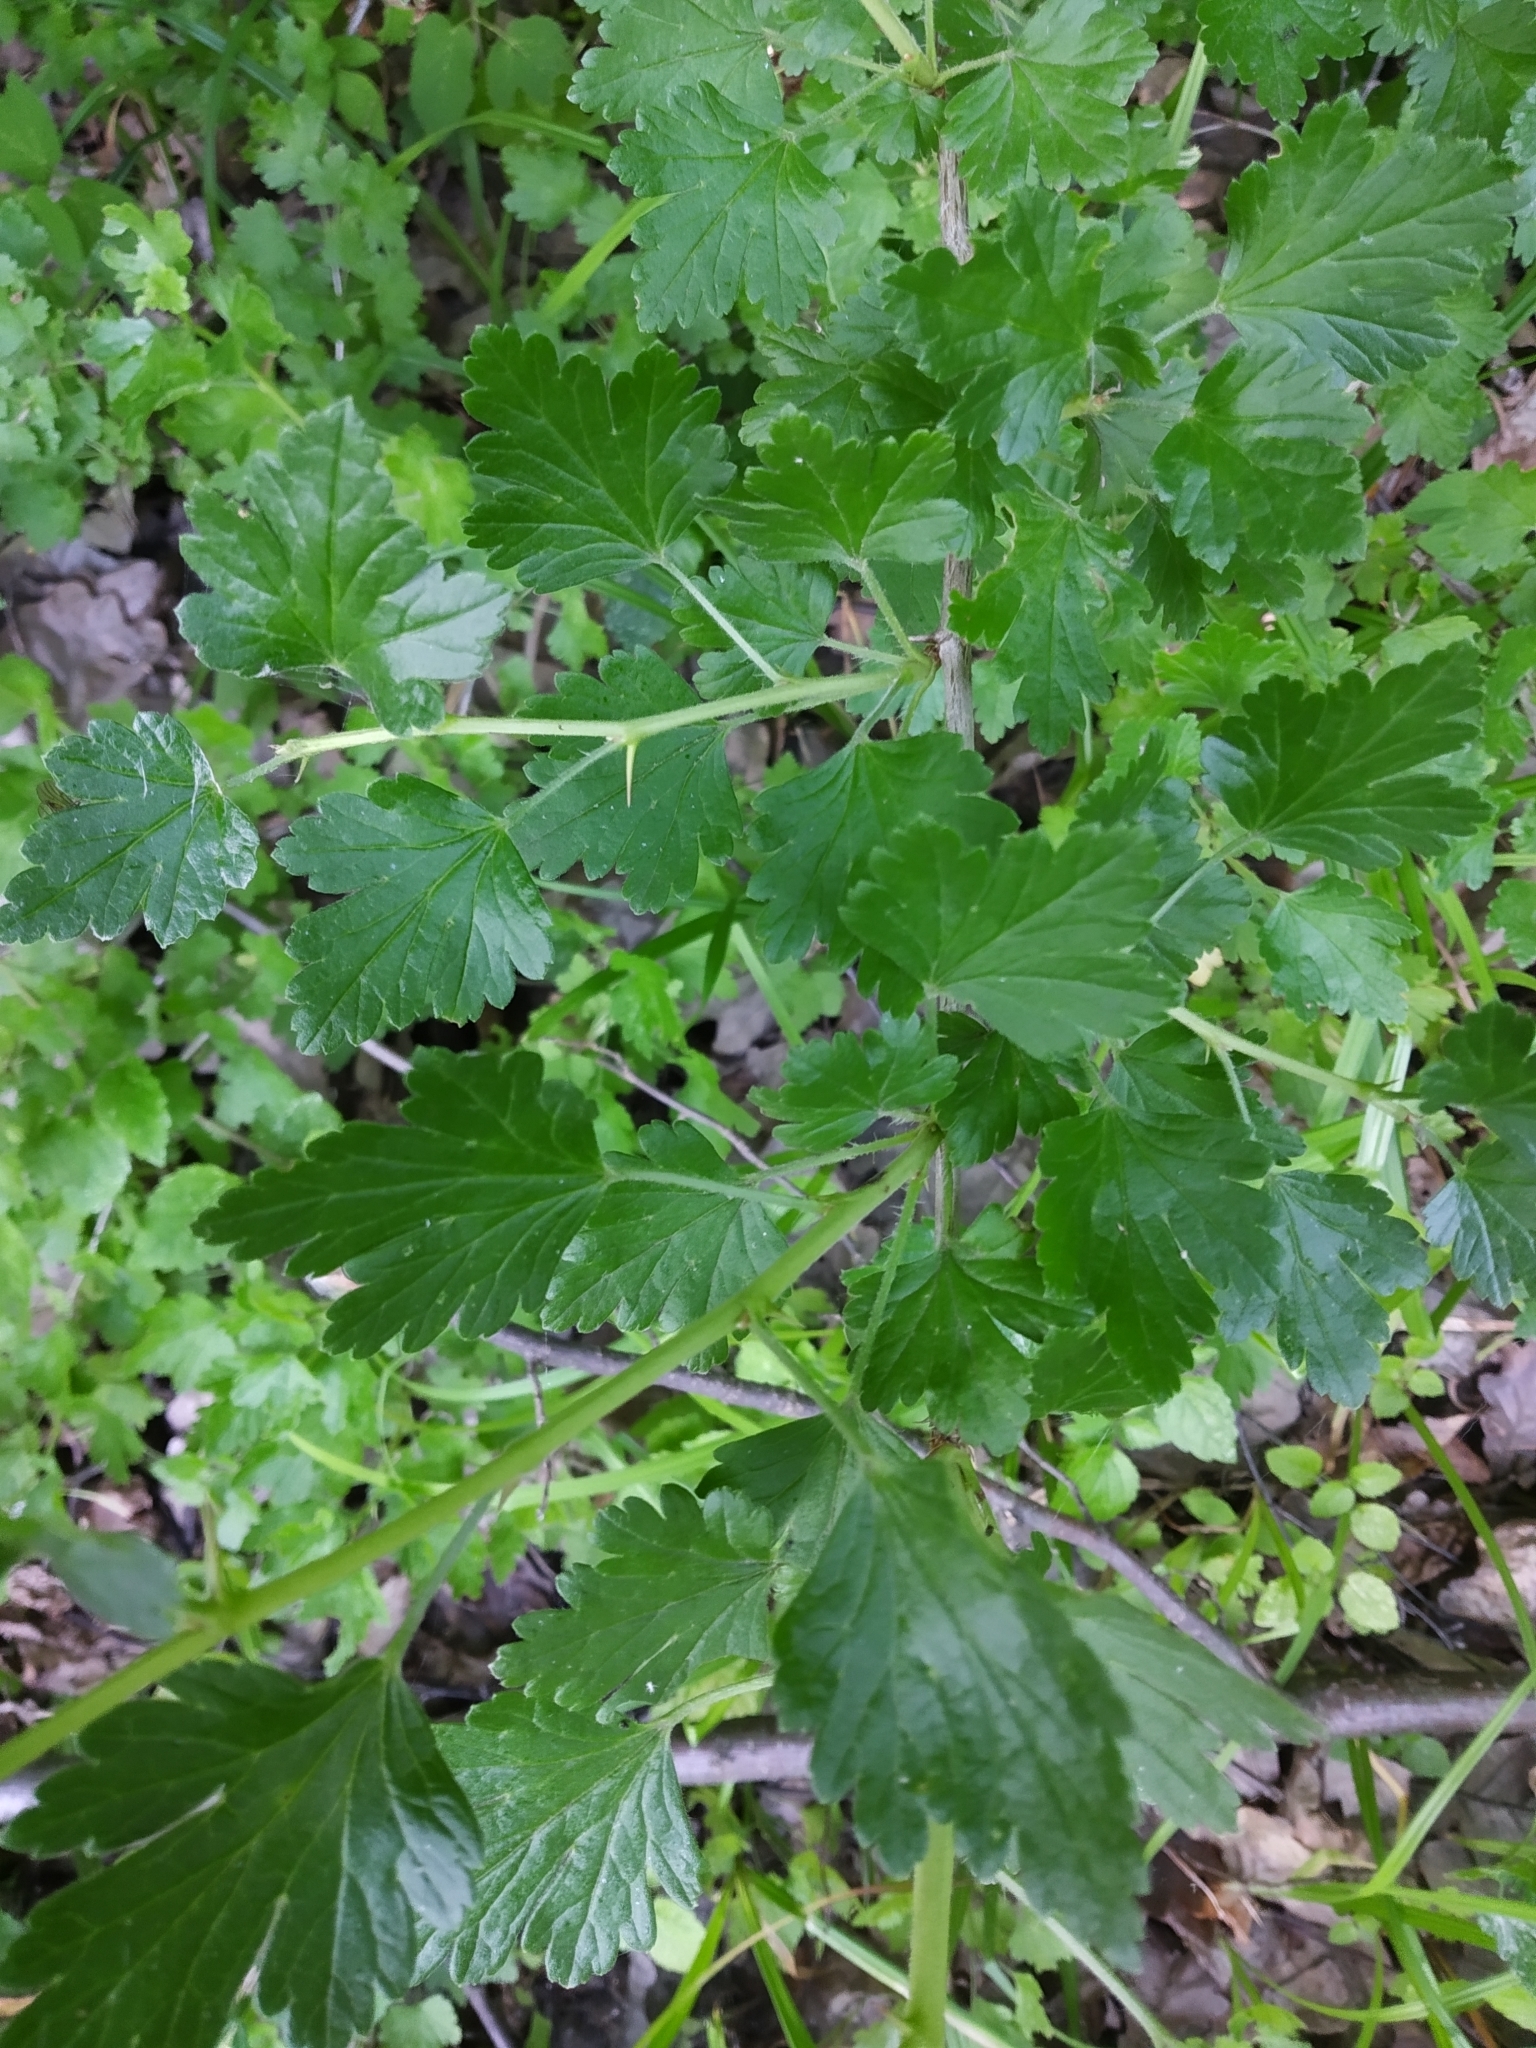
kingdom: Plantae
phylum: Tracheophyta
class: Magnoliopsida
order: Saxifragales
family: Grossulariaceae
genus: Ribes
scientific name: Ribes uva-crispa
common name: Gooseberry
